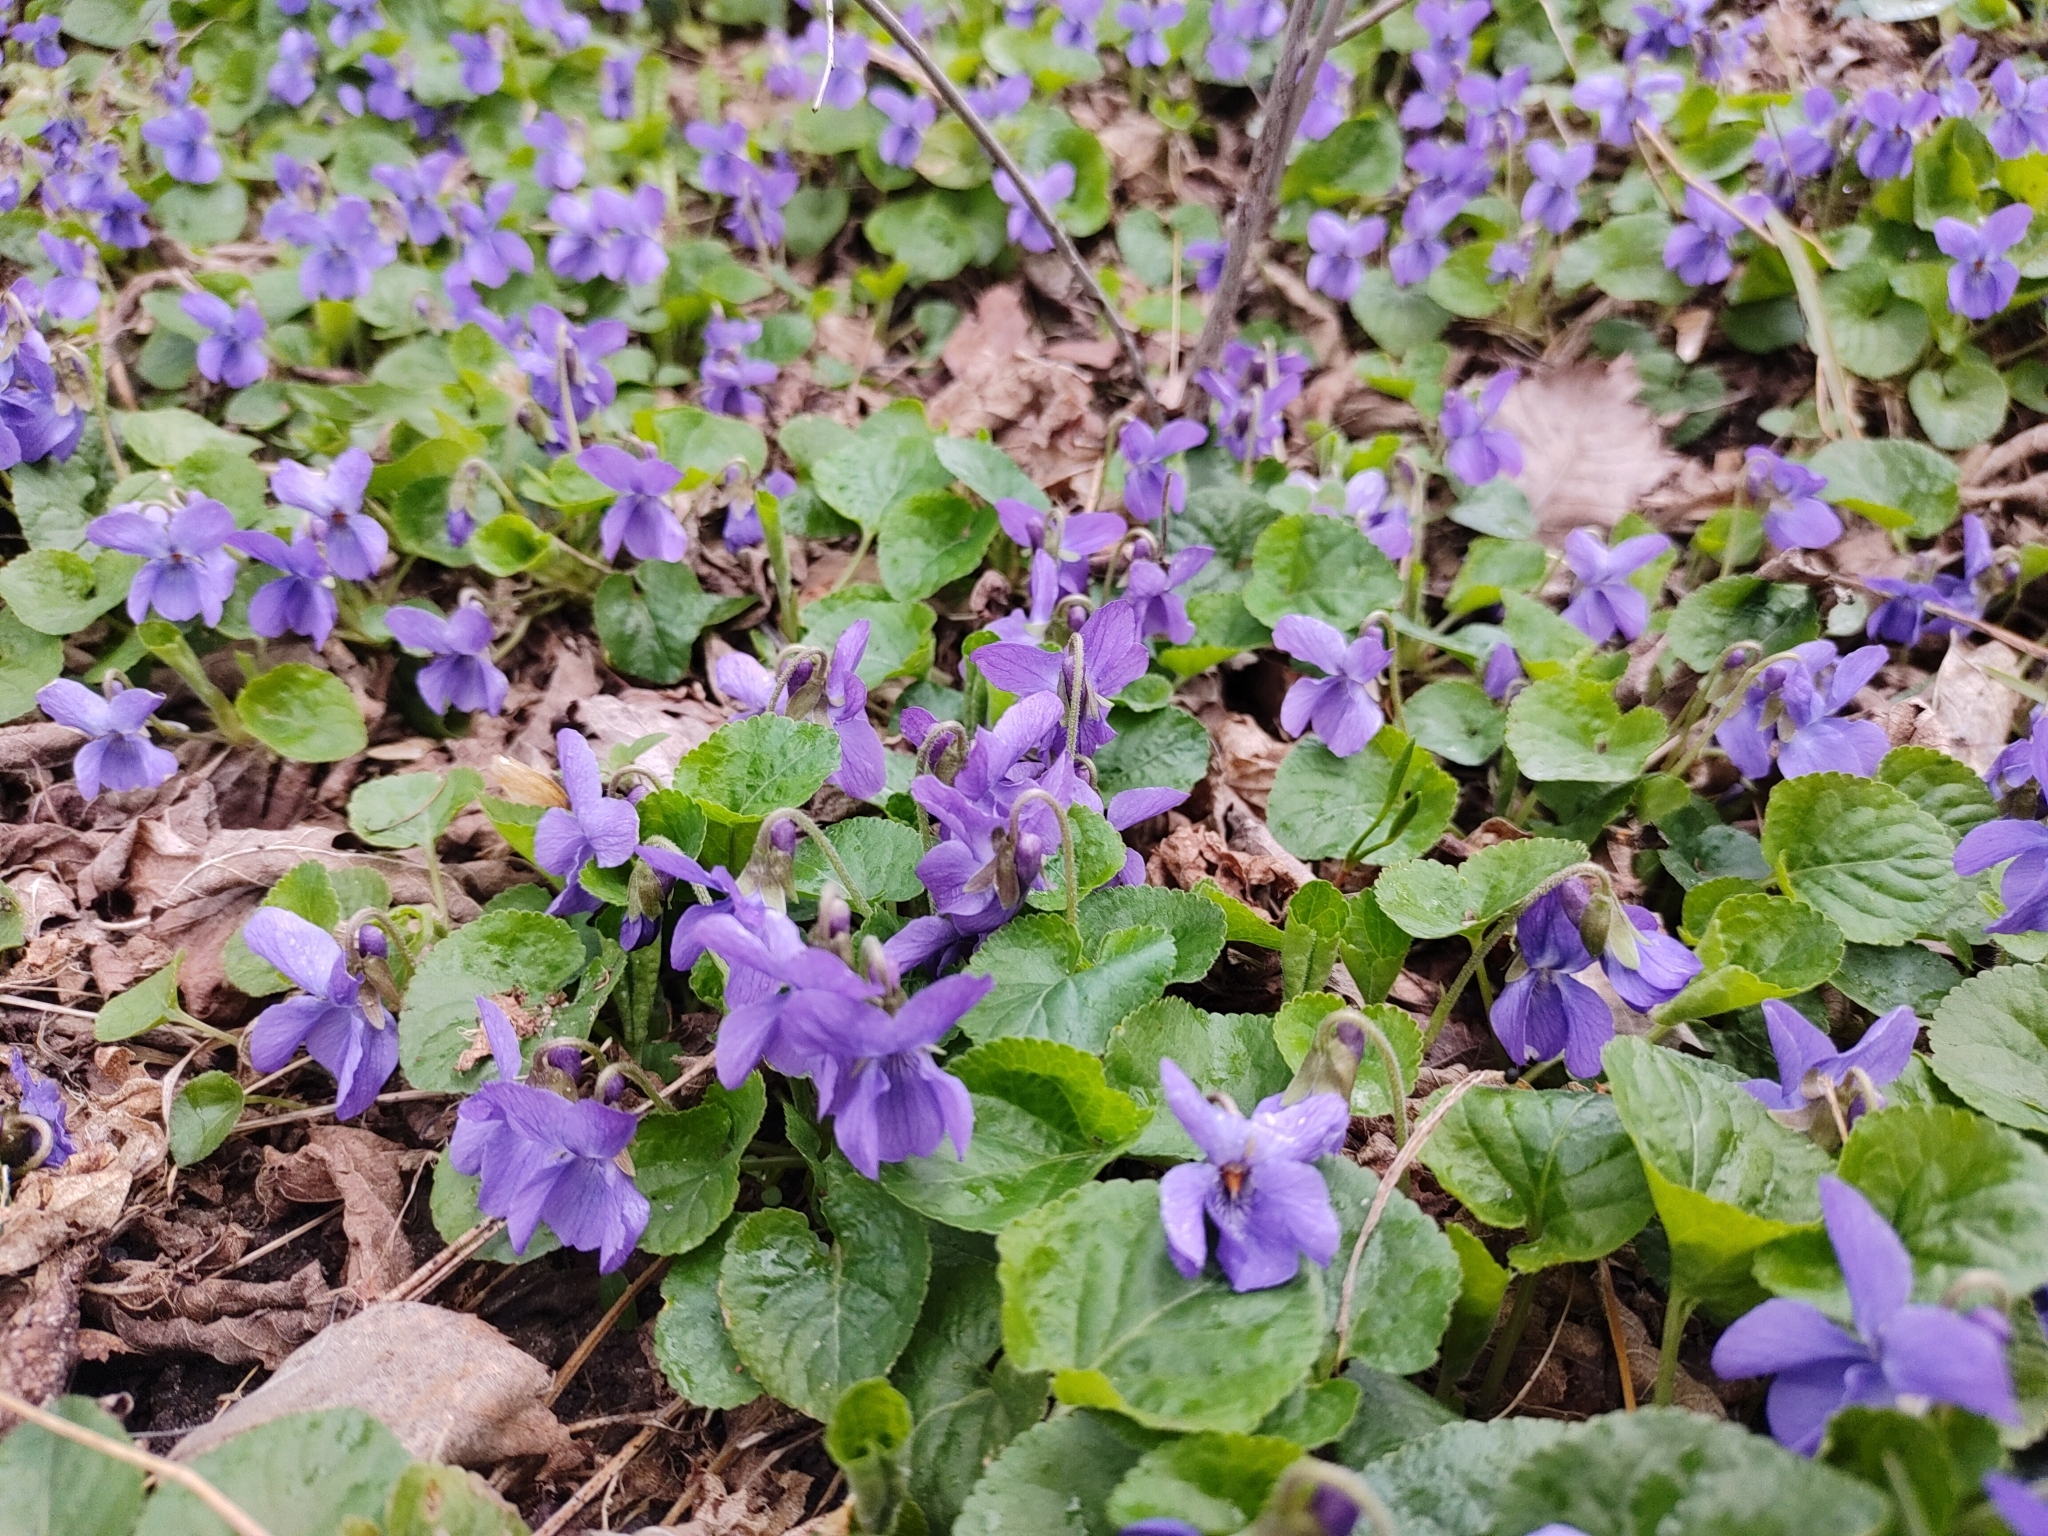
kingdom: Plantae
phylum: Tracheophyta
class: Magnoliopsida
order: Malpighiales
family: Violaceae
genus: Viola
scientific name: Viola odorata
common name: Sweet violet
